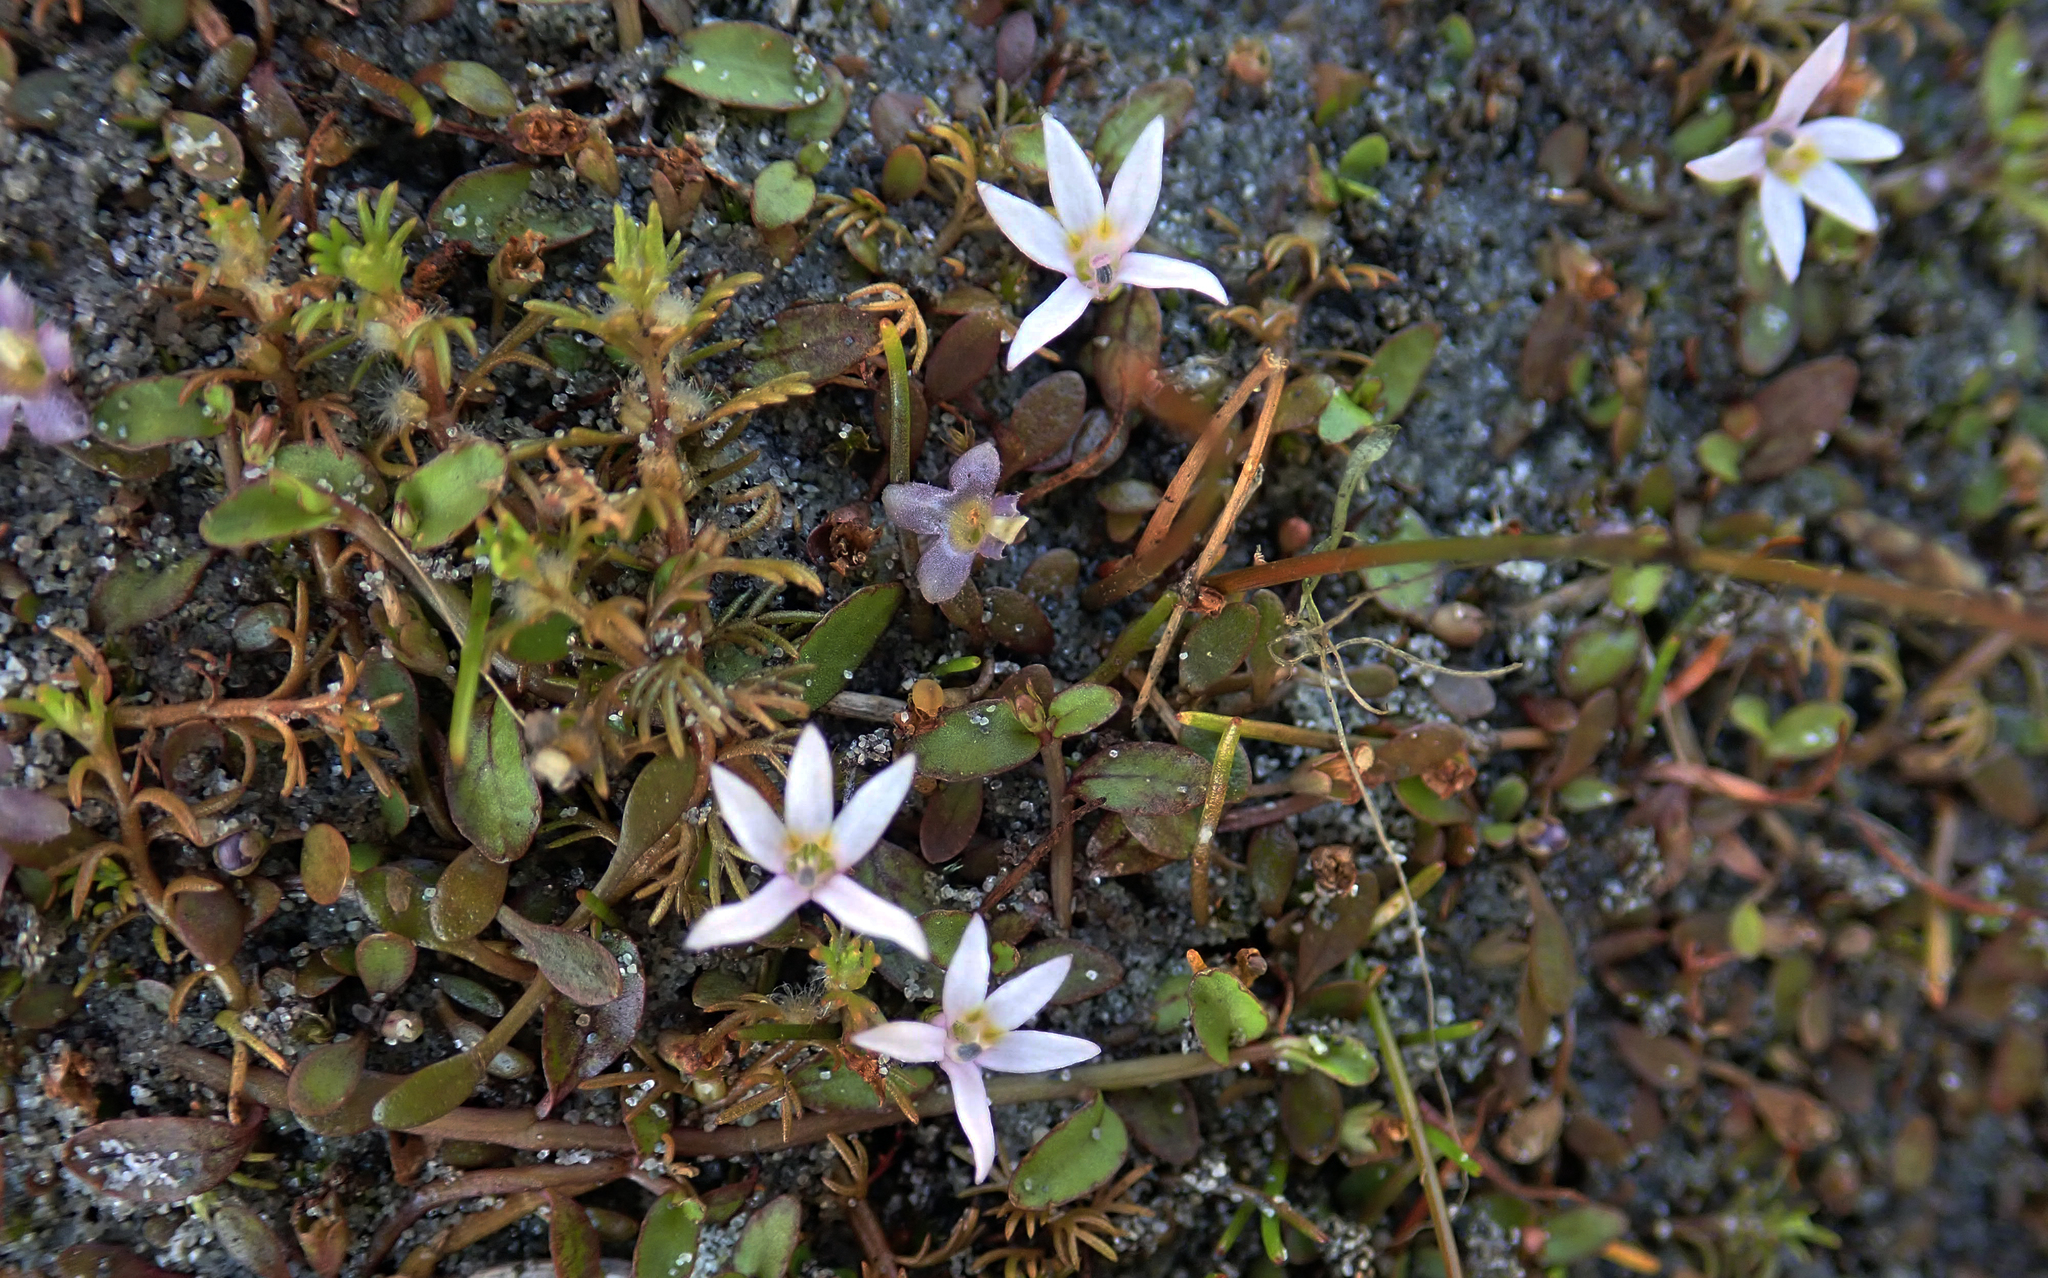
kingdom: Plantae
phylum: Tracheophyta
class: Magnoliopsida
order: Asterales
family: Campanulaceae
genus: Lobelia
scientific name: Lobelia fatiscens
